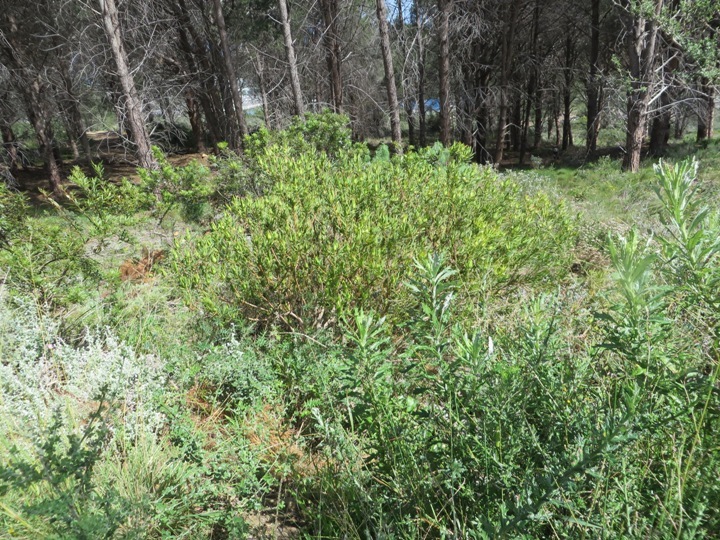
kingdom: Plantae
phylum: Tracheophyta
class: Magnoliopsida
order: Proteales
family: Proteaceae
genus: Leucadendron
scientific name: Leucadendron salignum
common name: Common sunshine conebush
